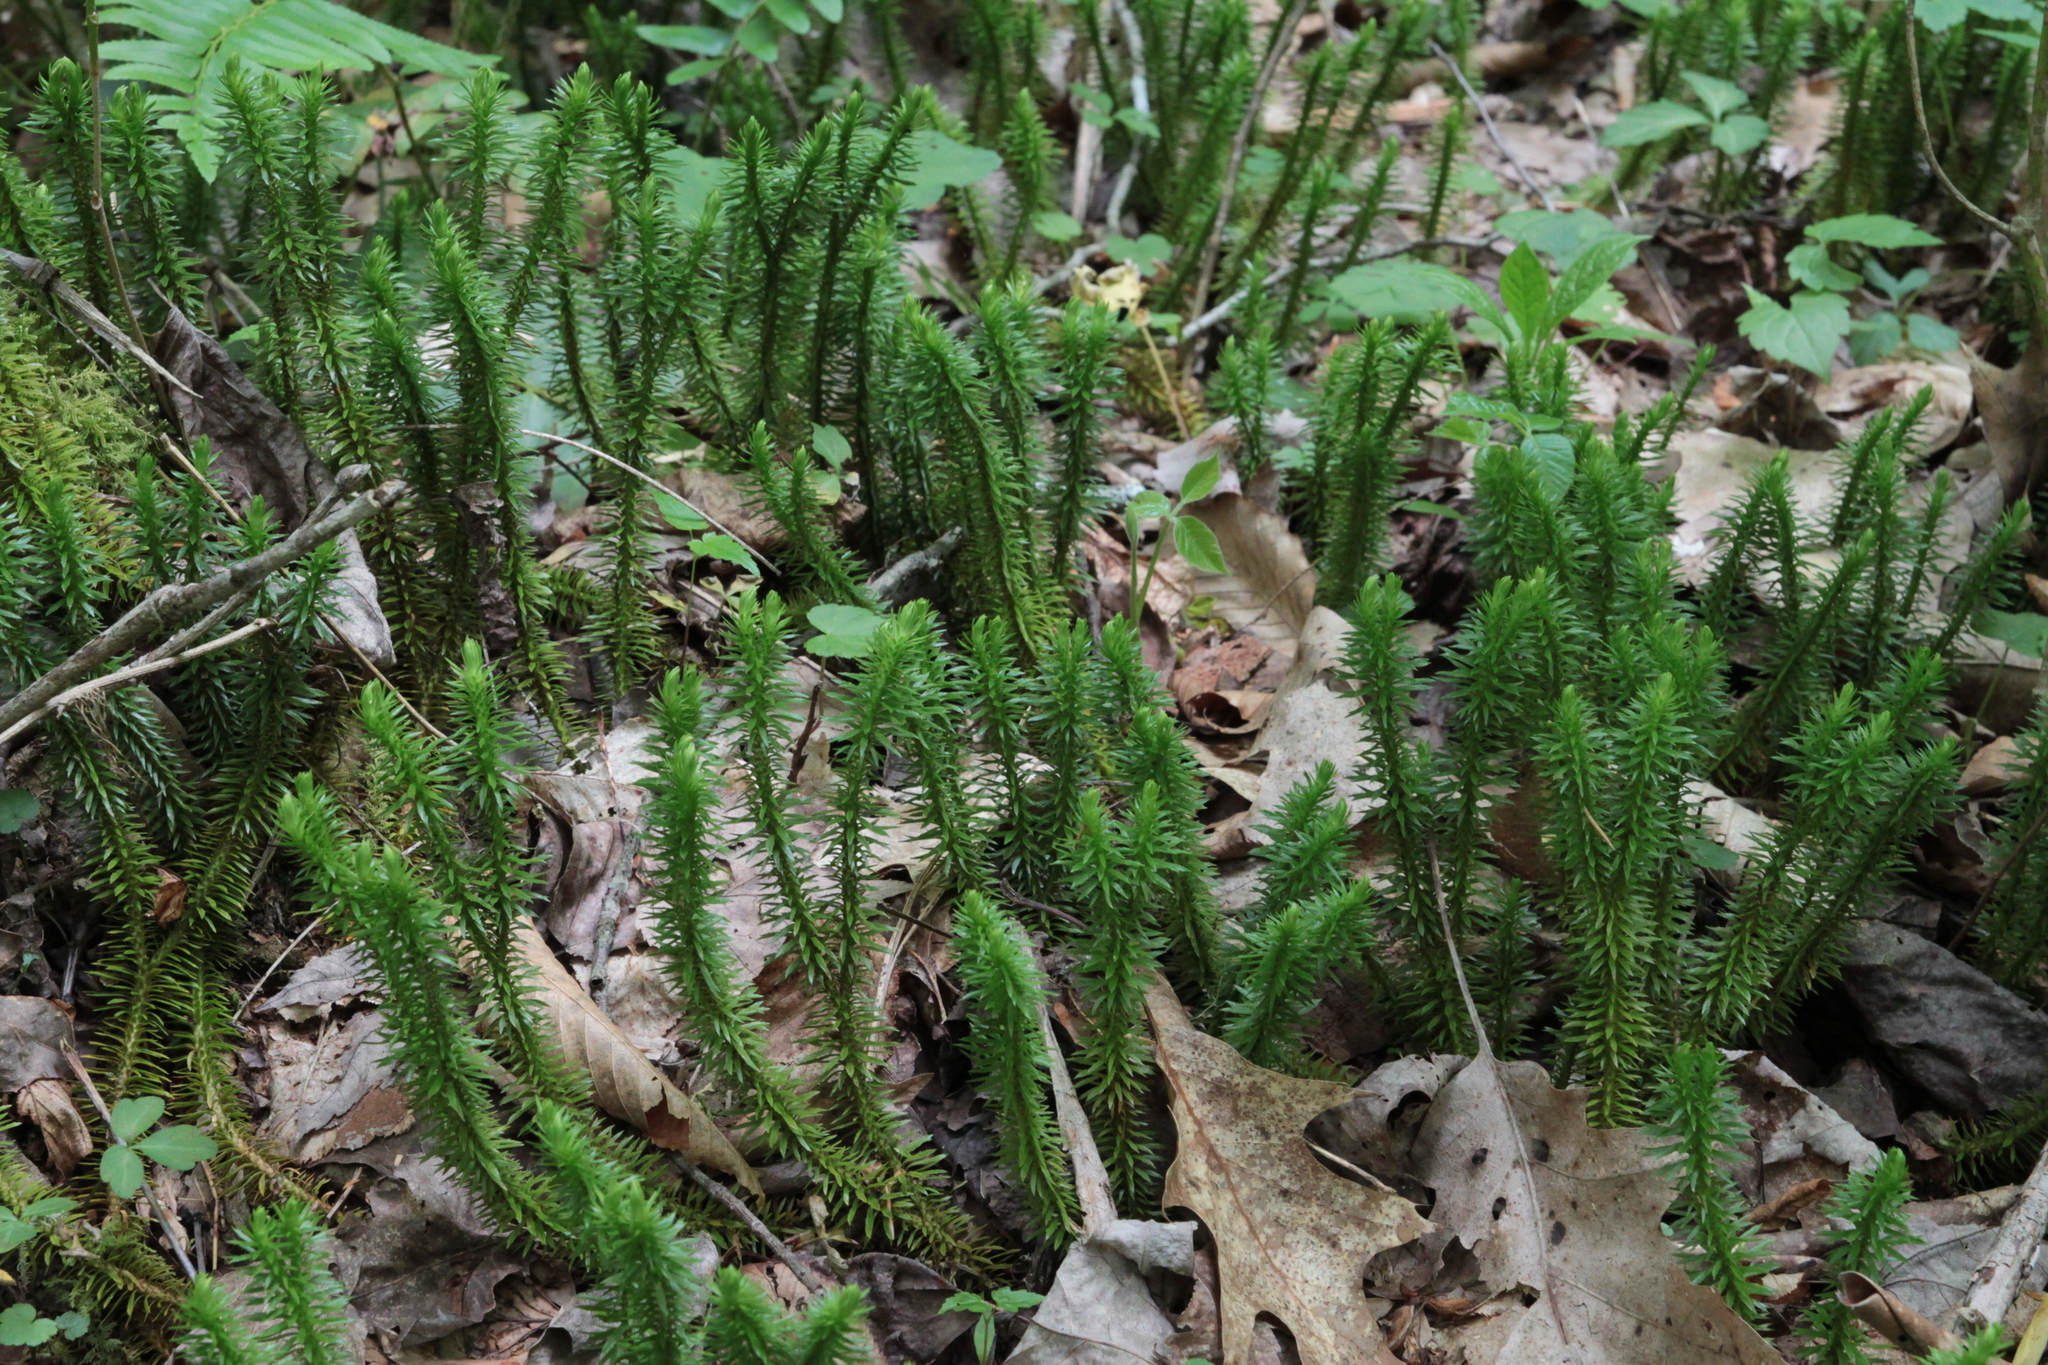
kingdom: Plantae
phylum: Tracheophyta
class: Lycopodiopsida
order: Lycopodiales
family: Lycopodiaceae
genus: Huperzia
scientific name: Huperzia lucidula
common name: Shining clubmoss
